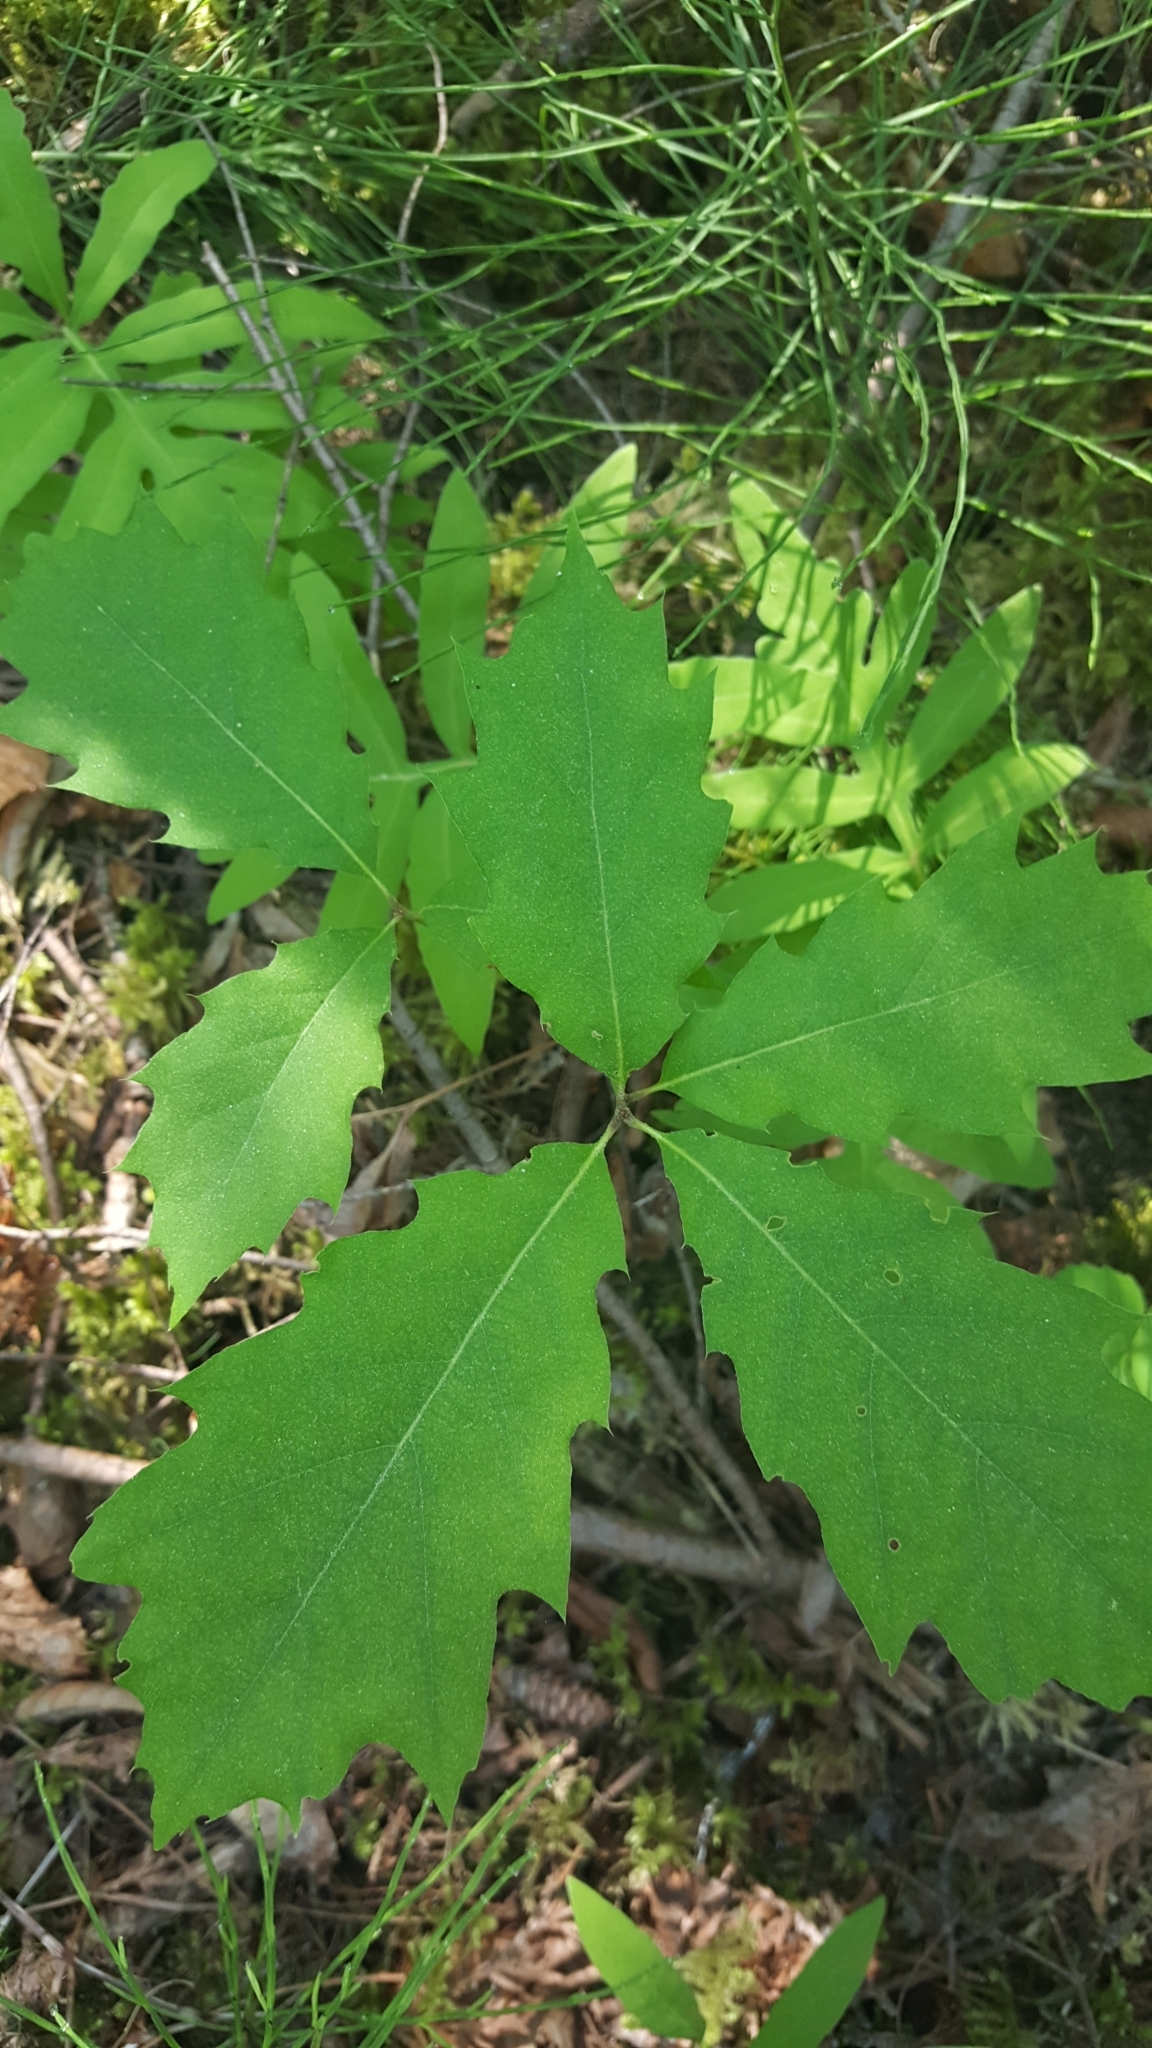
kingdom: Plantae
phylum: Tracheophyta
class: Magnoliopsida
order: Fagales
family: Fagaceae
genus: Quercus
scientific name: Quercus rubra
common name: Red oak
